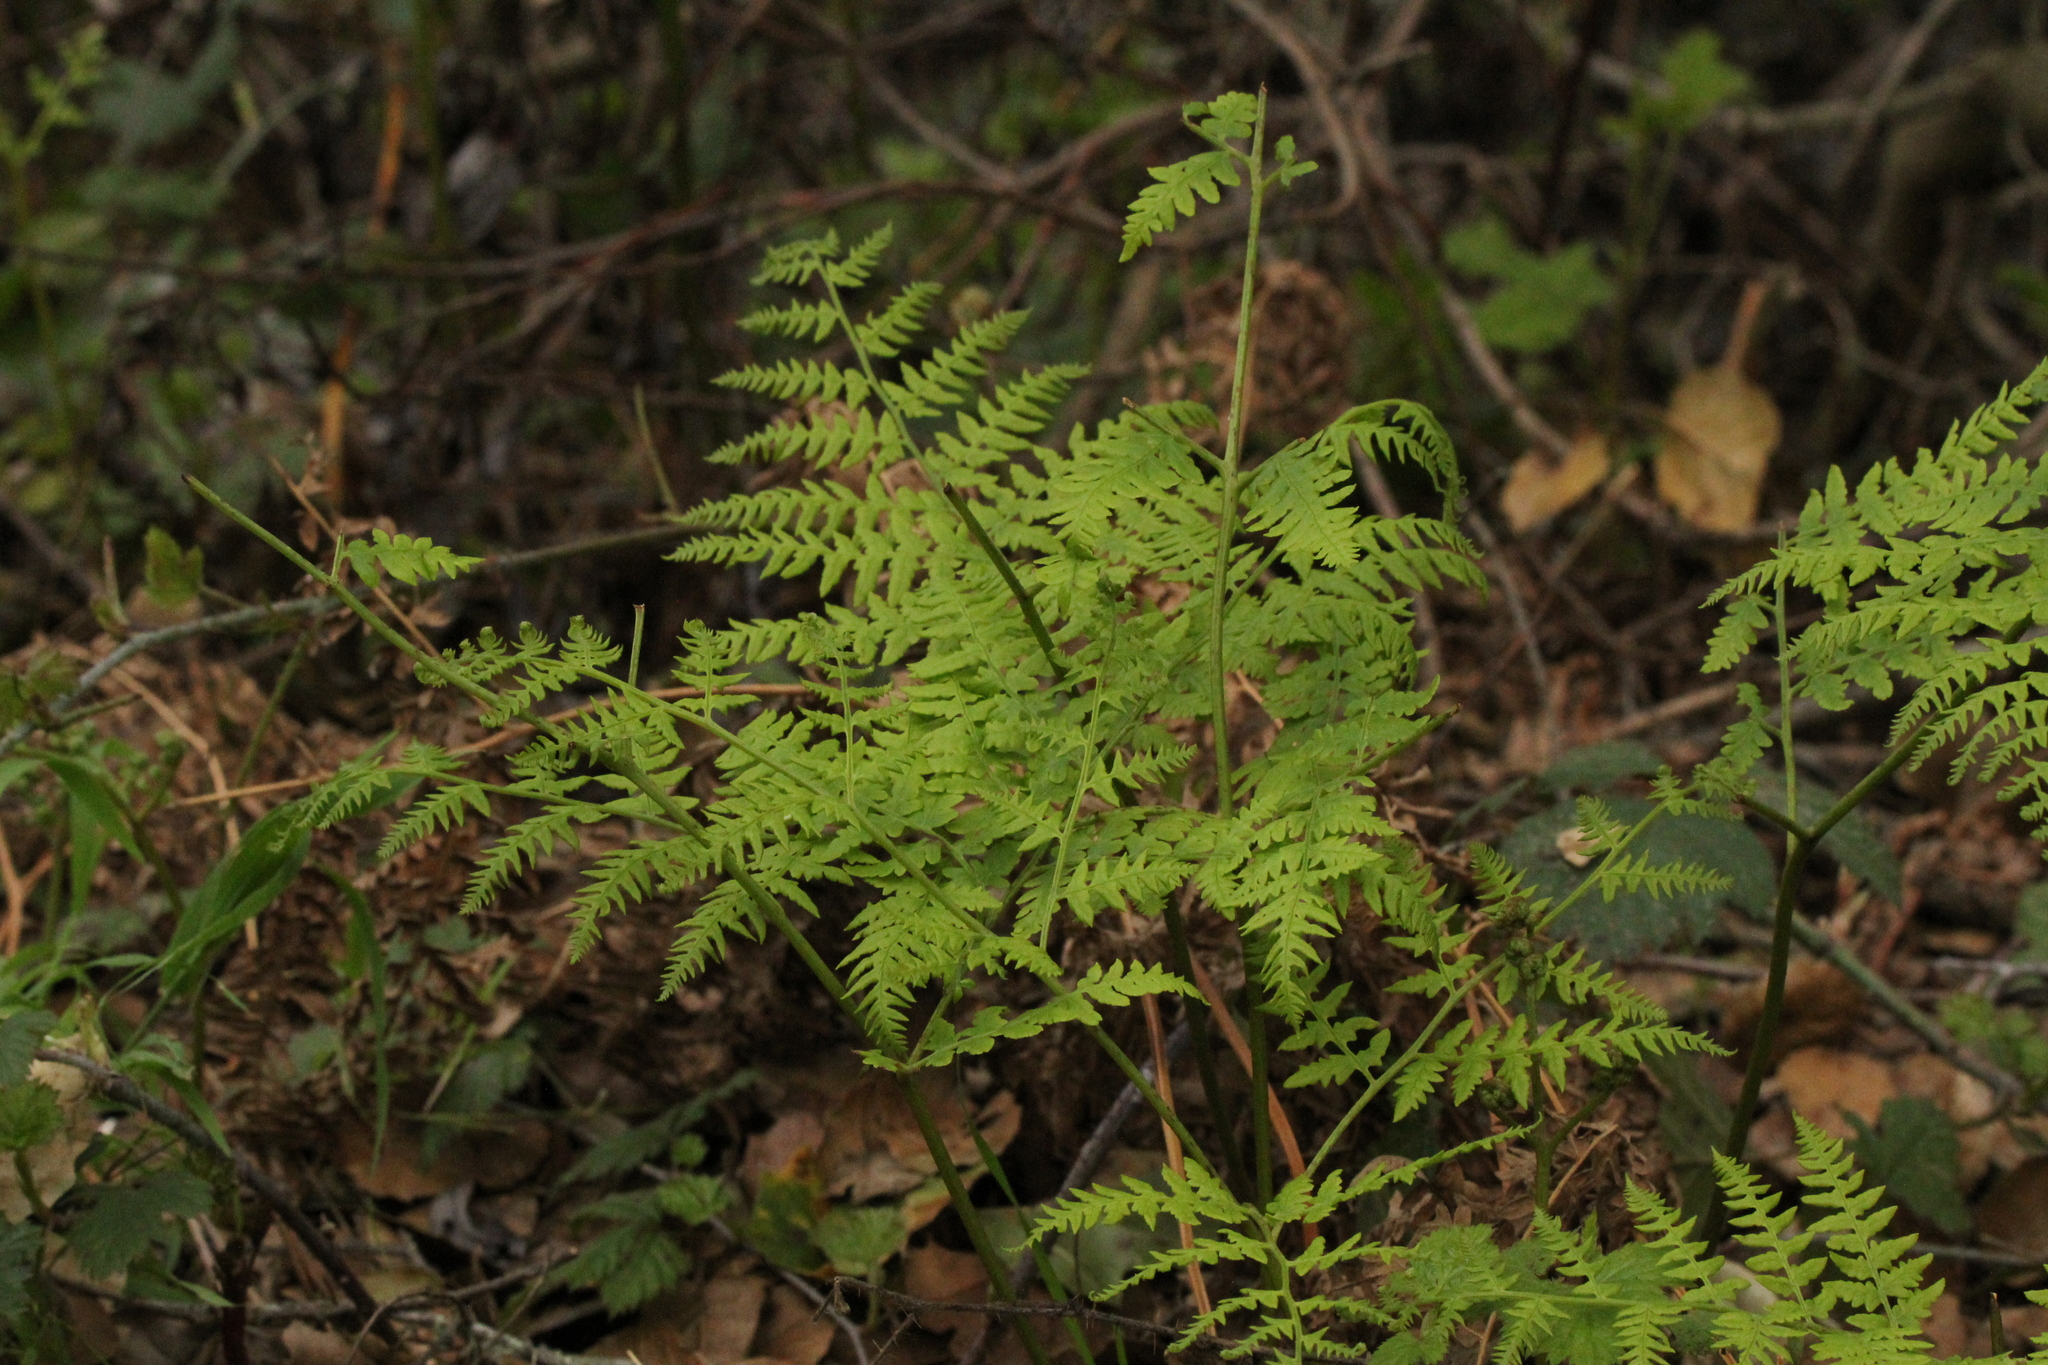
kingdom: Plantae
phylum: Tracheophyta
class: Polypodiopsida
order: Polypodiales
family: Dennstaedtiaceae
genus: Pteridium
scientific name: Pteridium aquilinum
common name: Bracken
